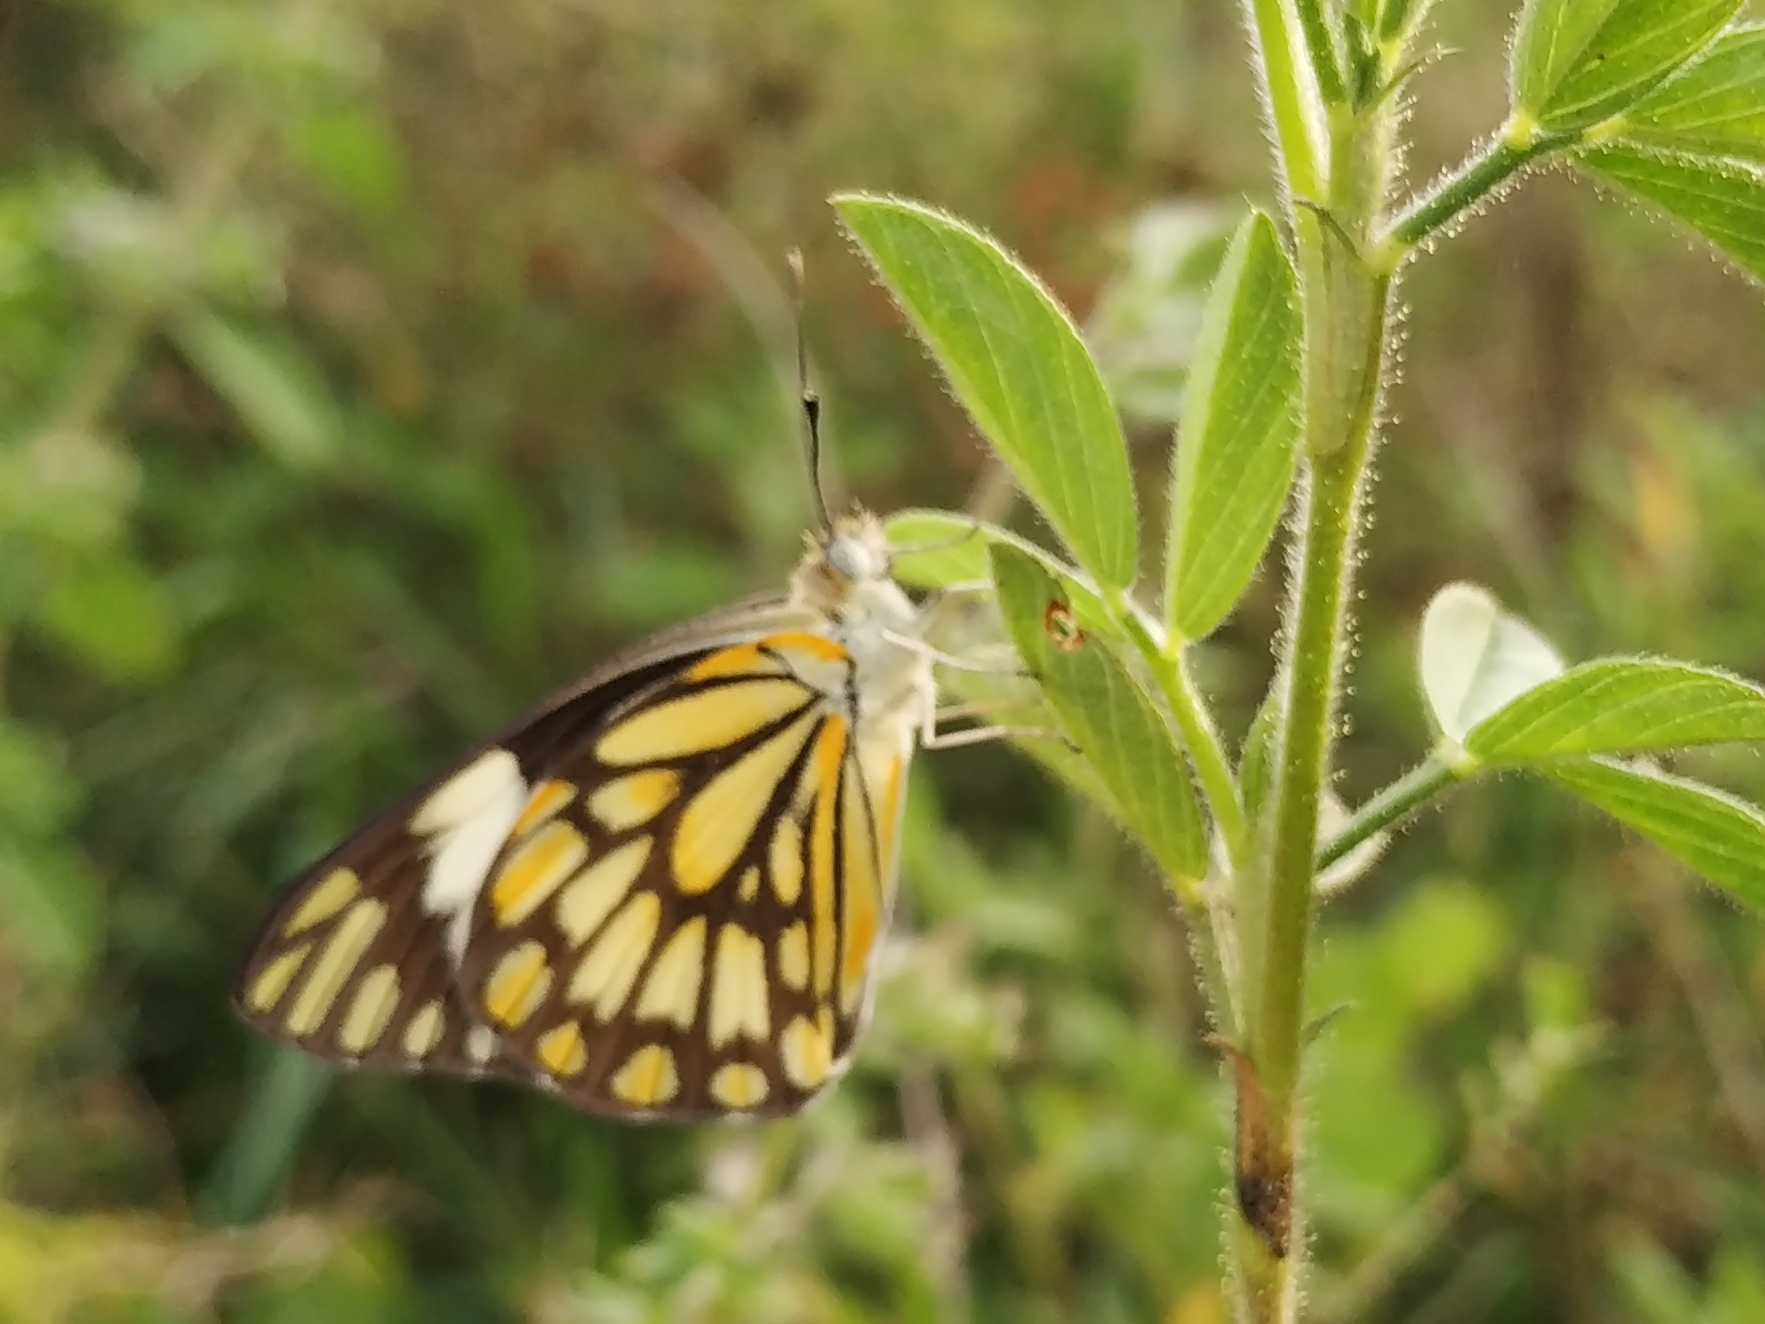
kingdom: Animalia
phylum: Arthropoda
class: Insecta
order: Lepidoptera
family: Pieridae
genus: Belenois
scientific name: Belenois aurota
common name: Brown-veined white
